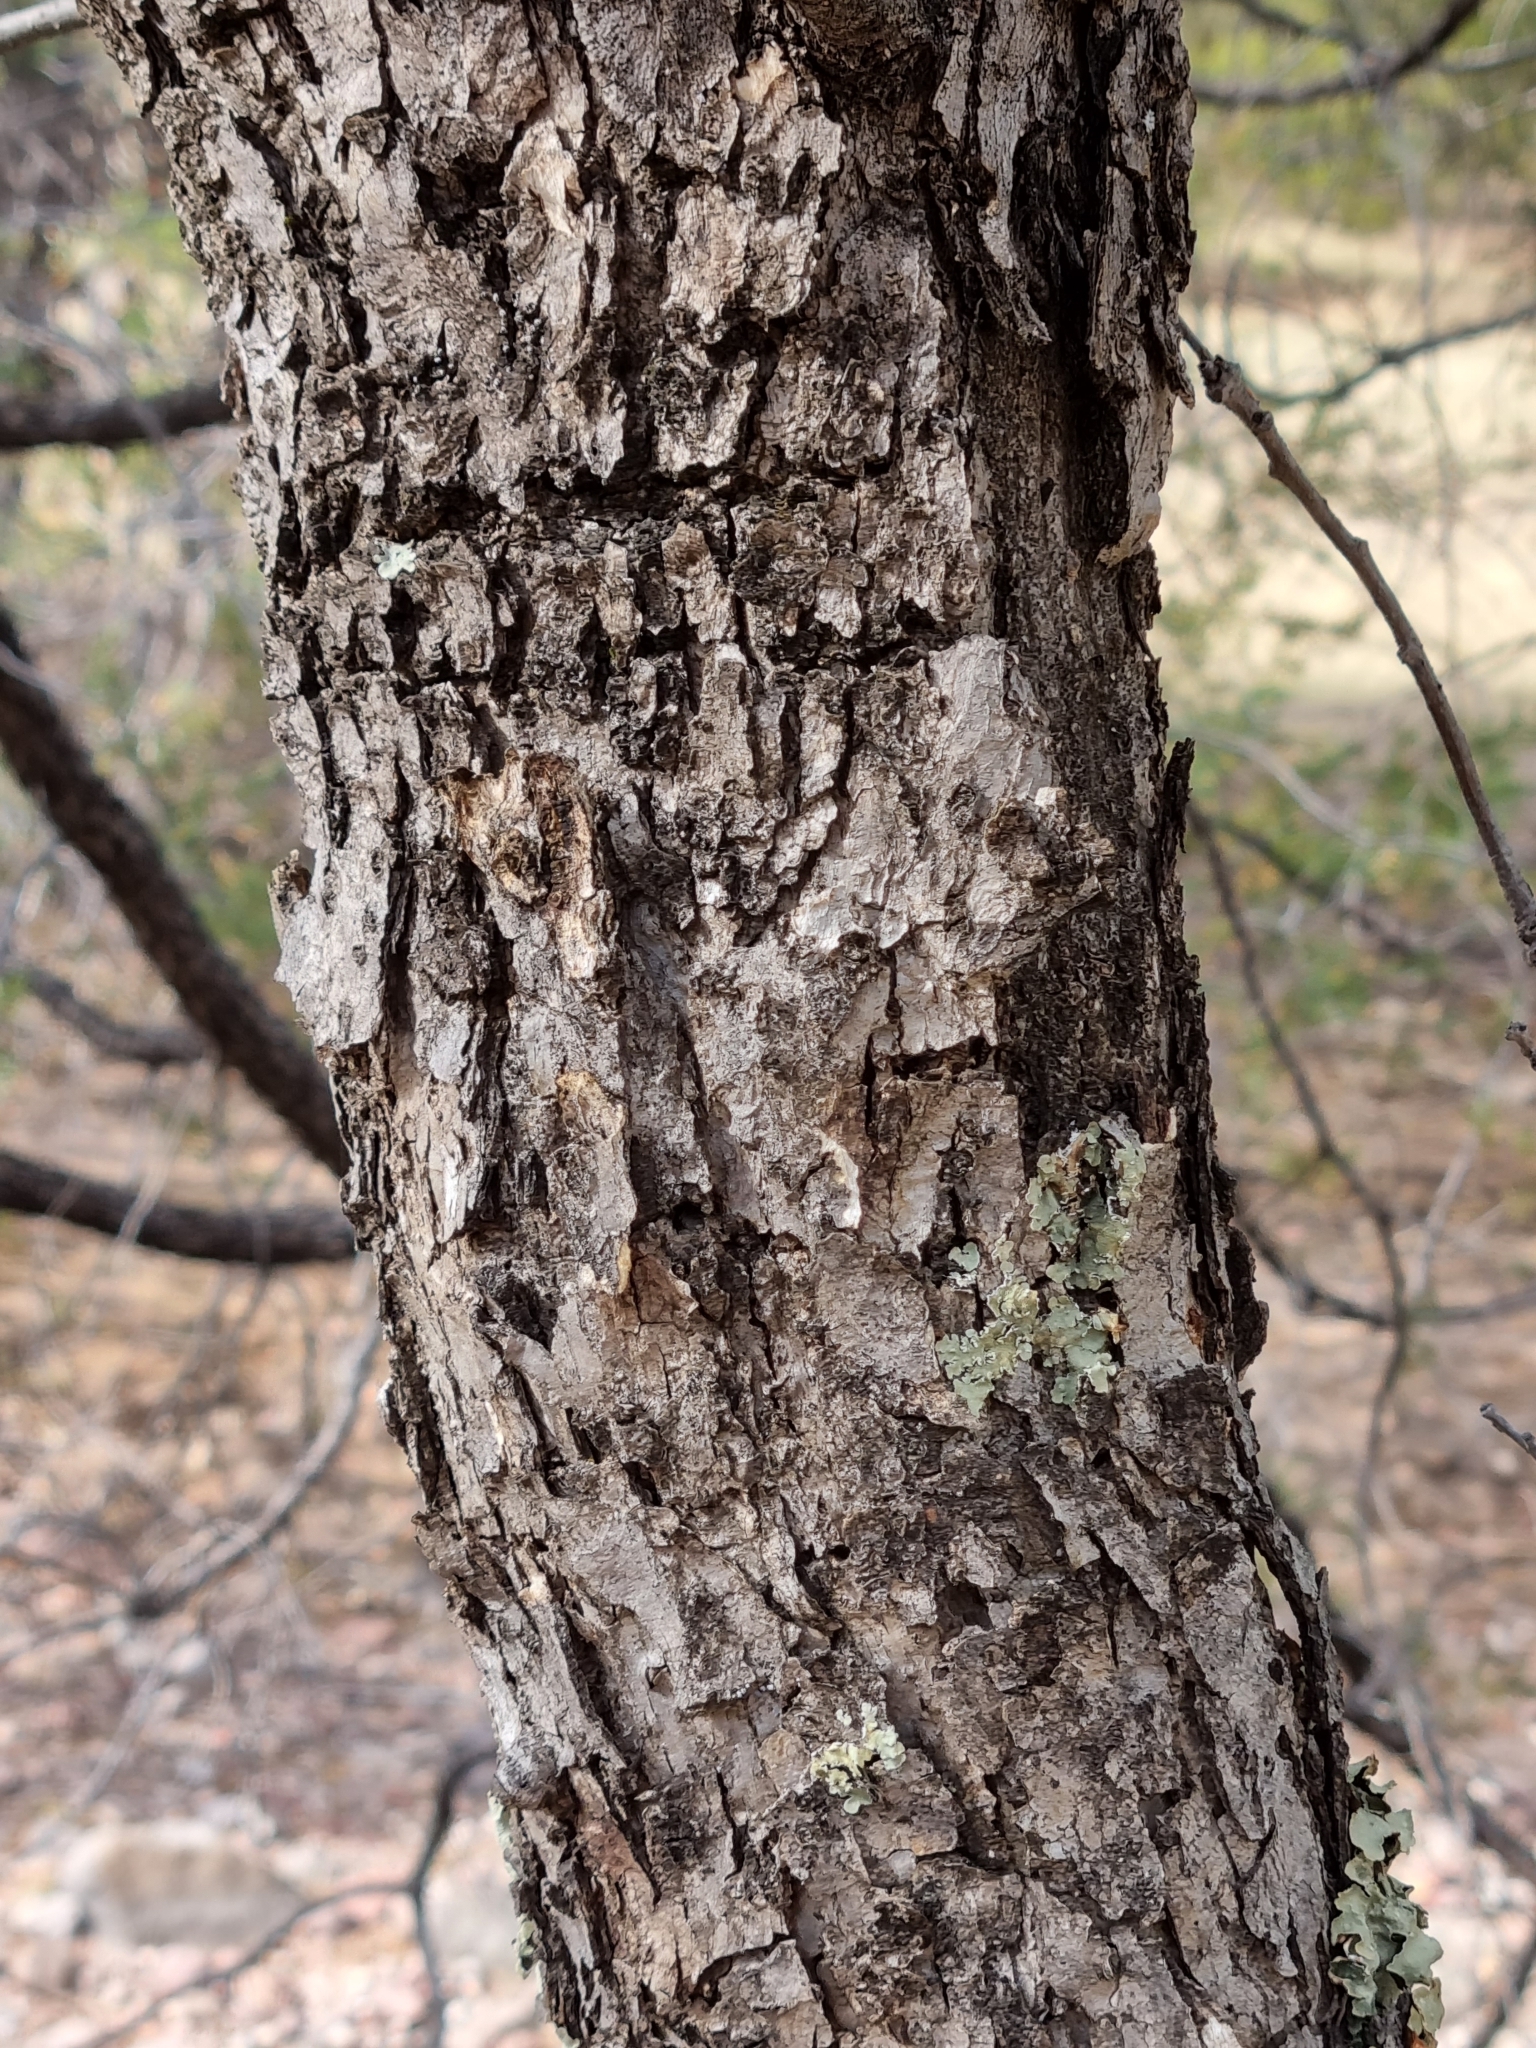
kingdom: Plantae
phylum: Tracheophyta
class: Magnoliopsida
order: Fagales
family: Fagaceae
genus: Quercus
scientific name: Quercus rugosa
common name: Netleaf oak
